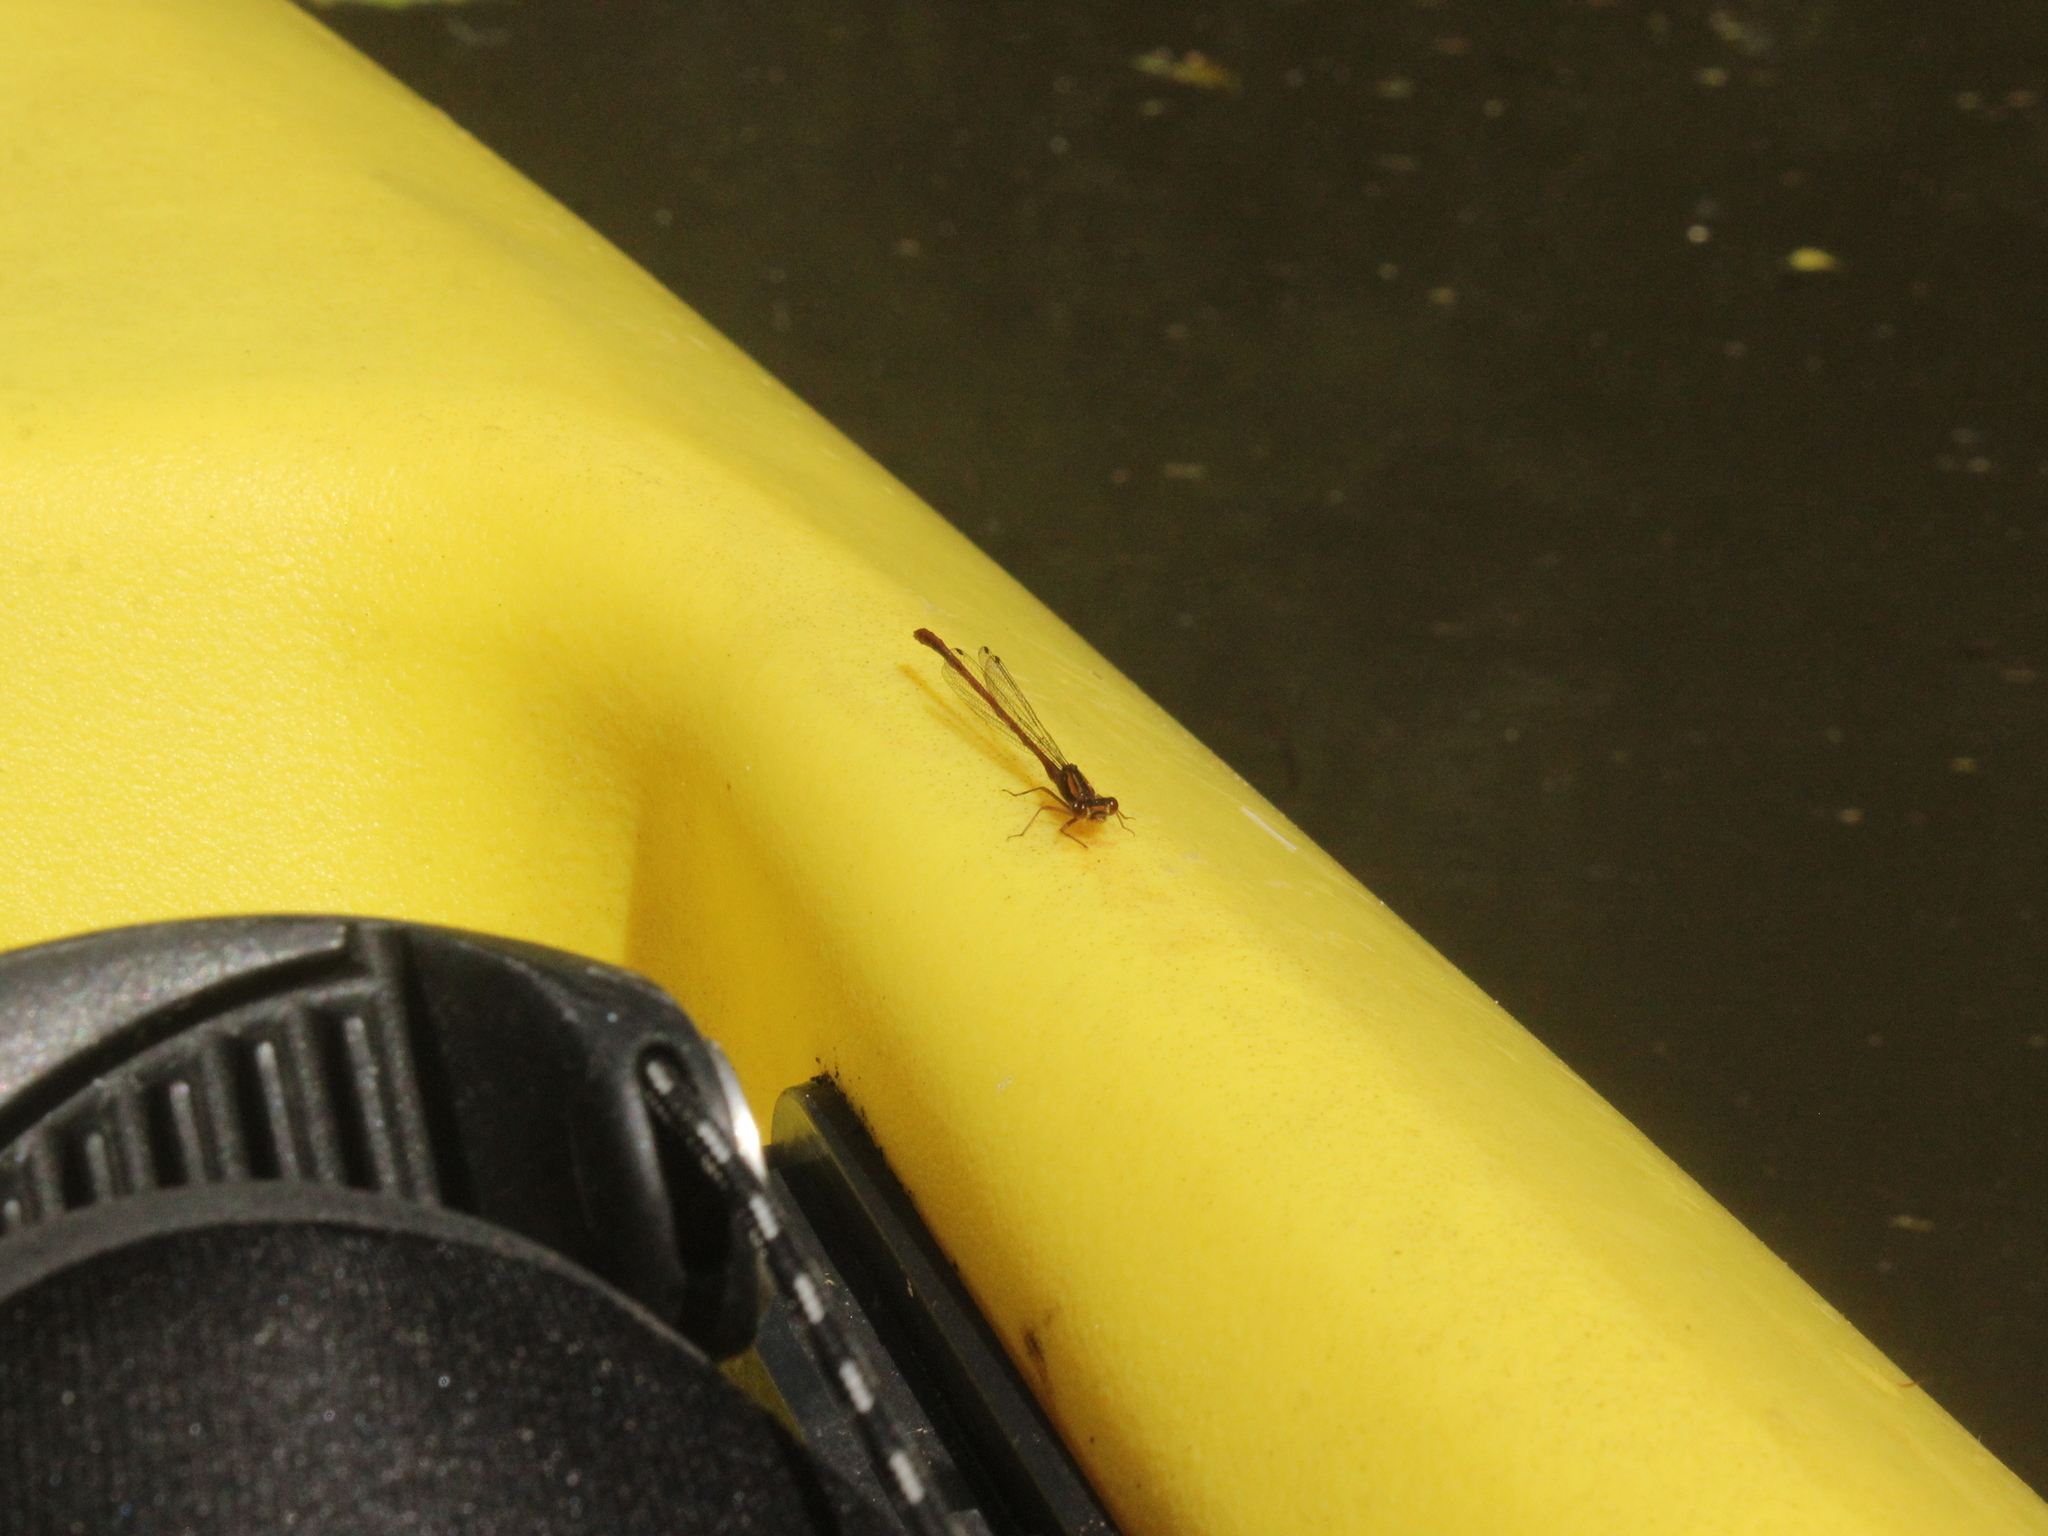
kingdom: Animalia
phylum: Arthropoda
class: Insecta
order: Odonata
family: Coenagrionidae
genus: Xanthocnemis
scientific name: Xanthocnemis zealandica
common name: Common redcoat damselfly
